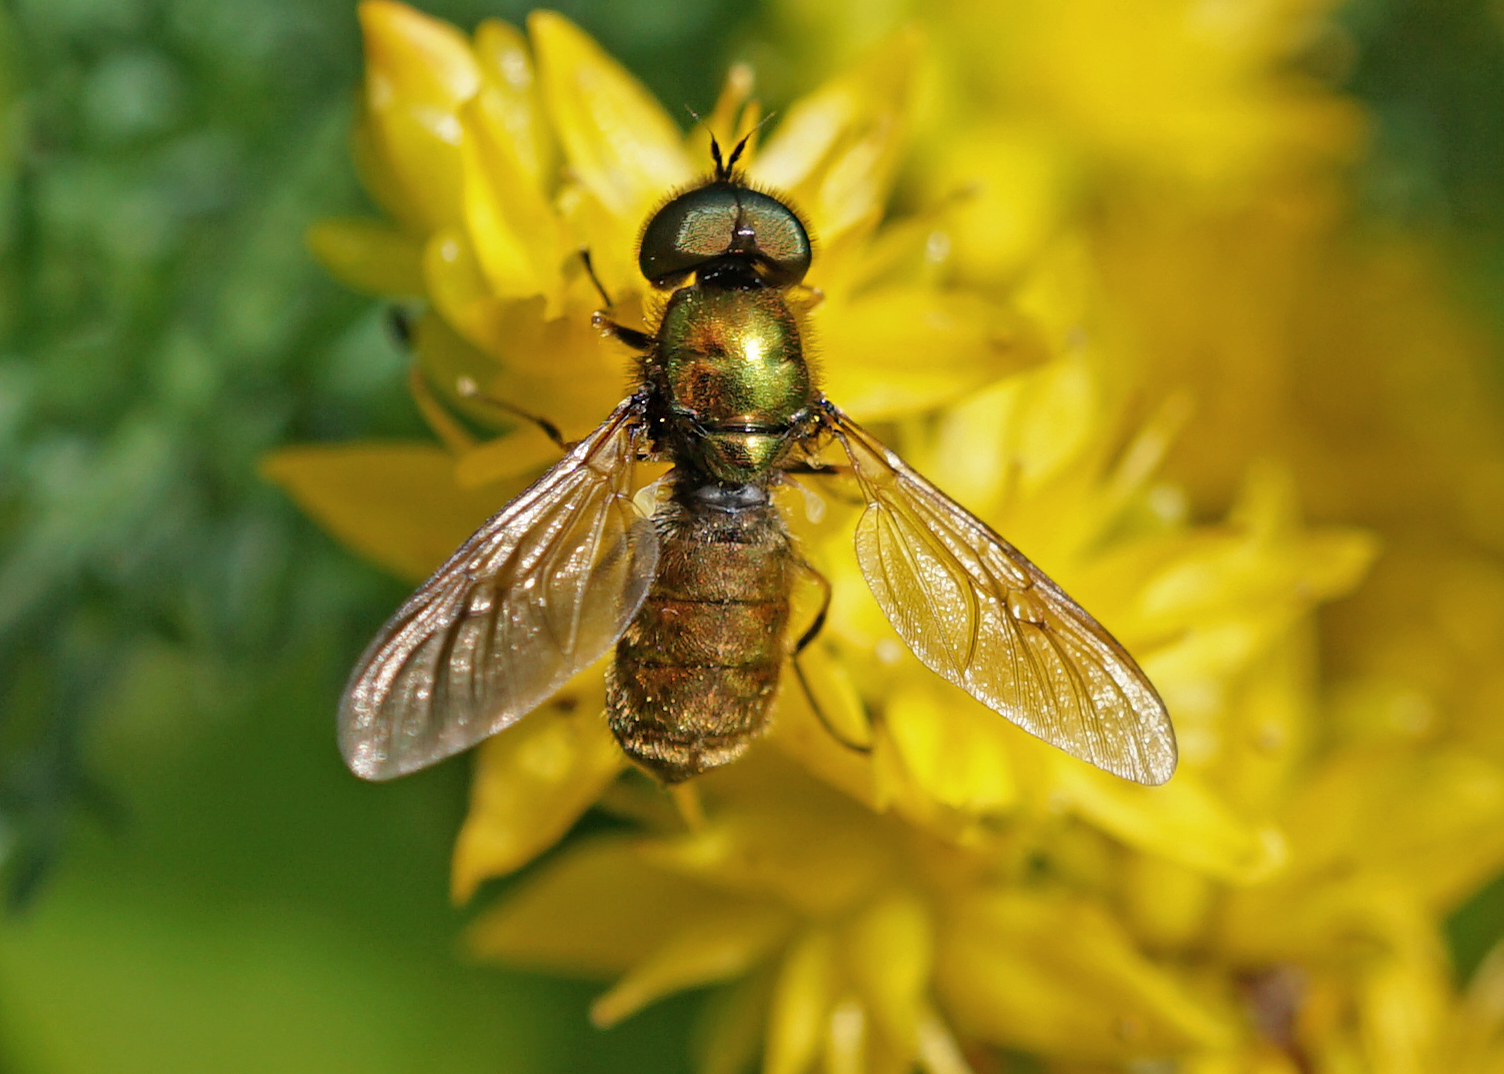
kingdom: Animalia
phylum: Arthropoda
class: Insecta
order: Diptera
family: Stratiomyidae
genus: Chloromyia
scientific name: Chloromyia formosa
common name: Soldier fly
